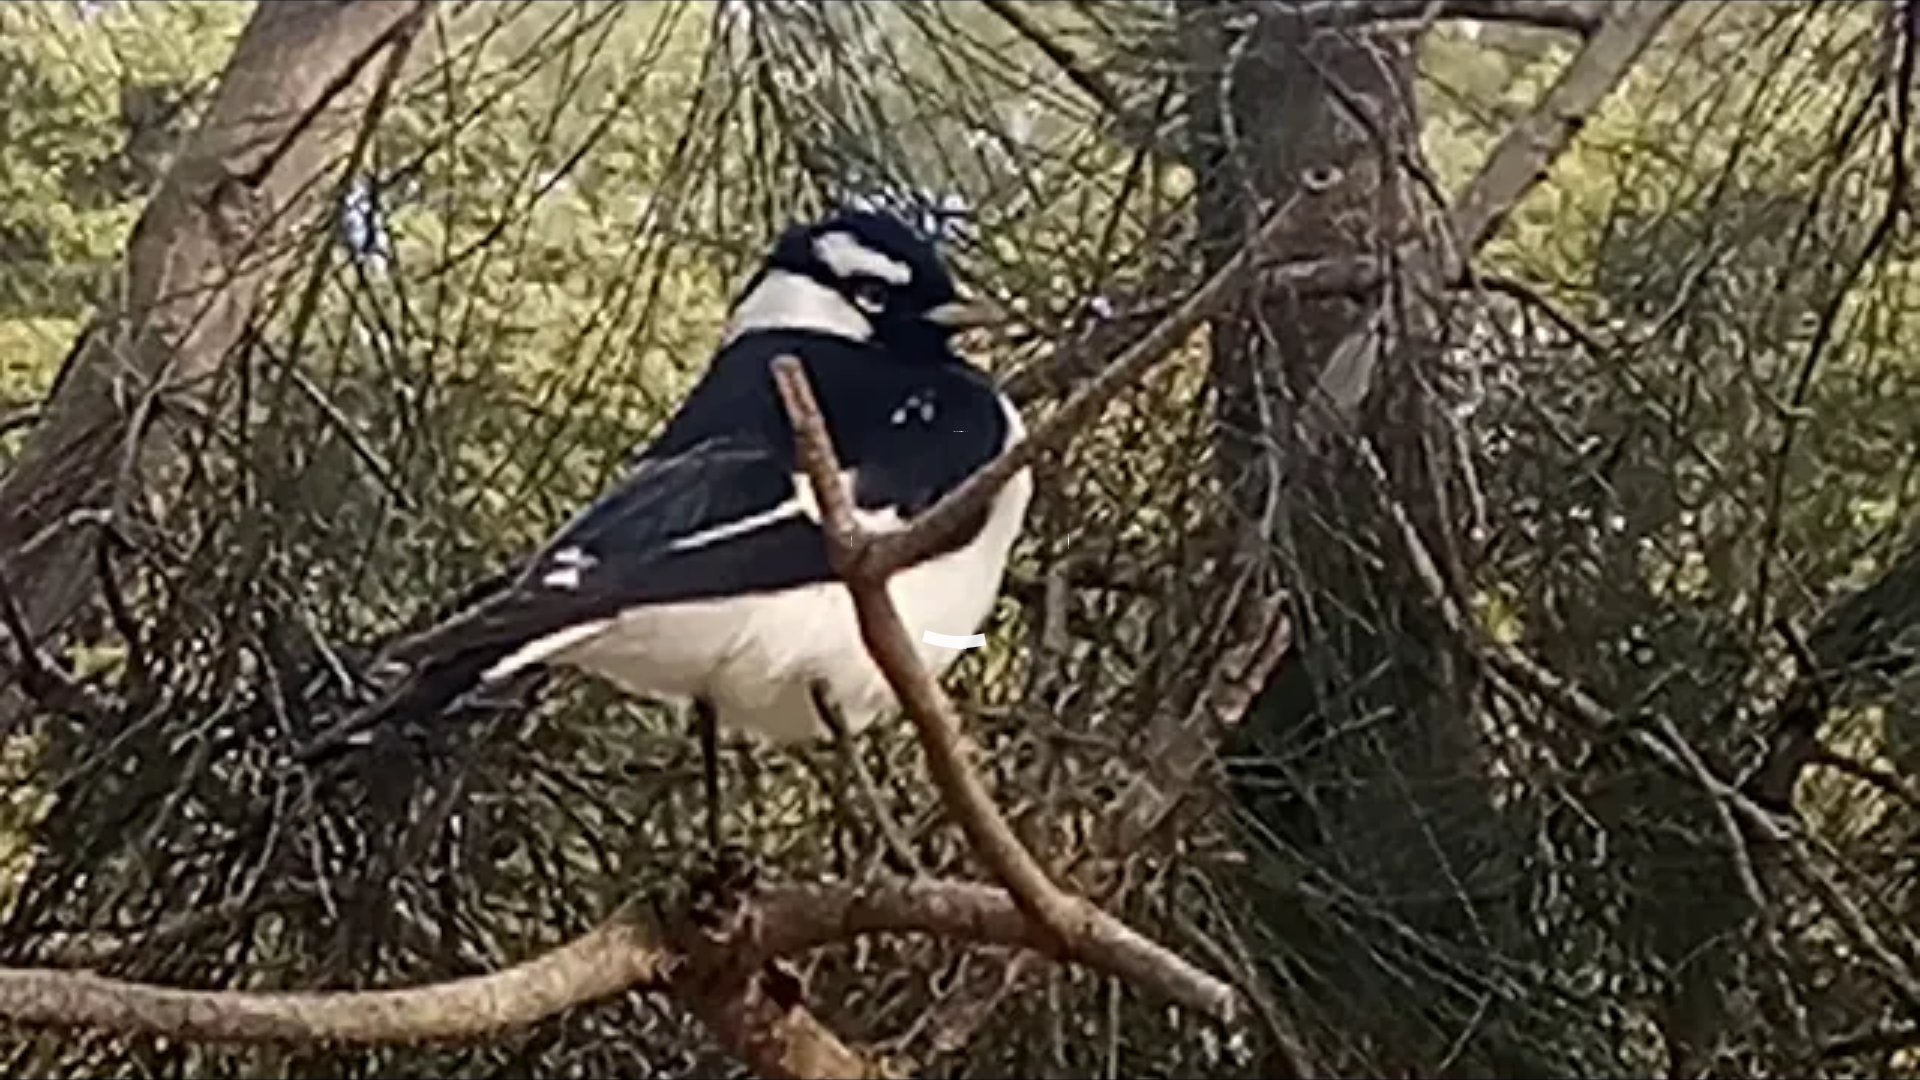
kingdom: Animalia
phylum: Chordata
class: Aves
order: Passeriformes
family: Monarchidae
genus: Grallina
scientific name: Grallina cyanoleuca
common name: Magpie-lark
